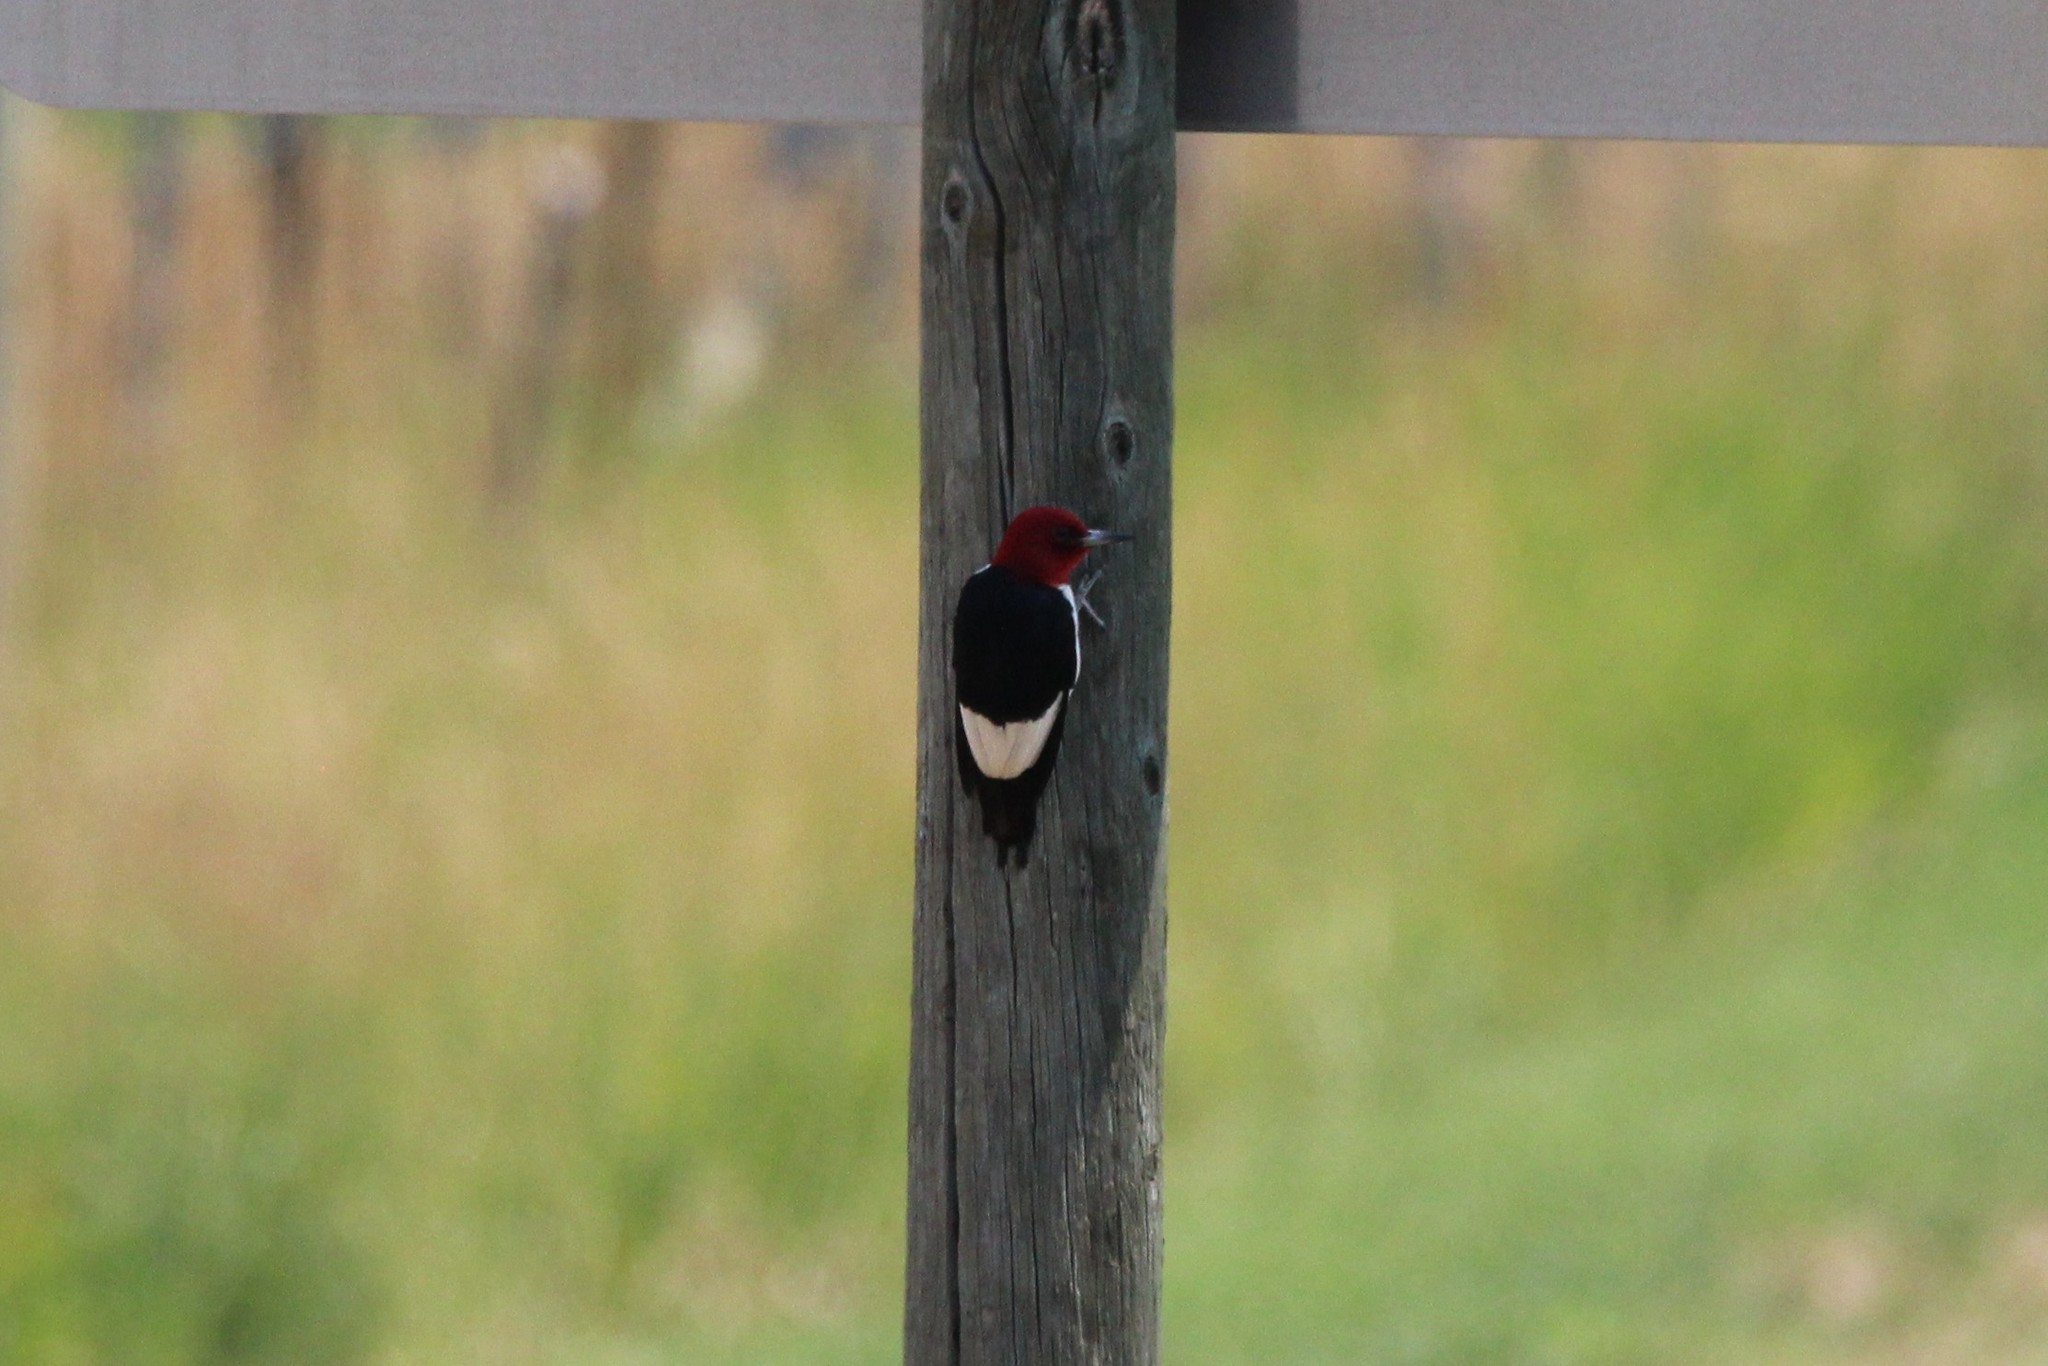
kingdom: Animalia
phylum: Chordata
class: Aves
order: Piciformes
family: Picidae
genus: Melanerpes
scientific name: Melanerpes erythrocephalus
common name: Red-headed woodpecker
